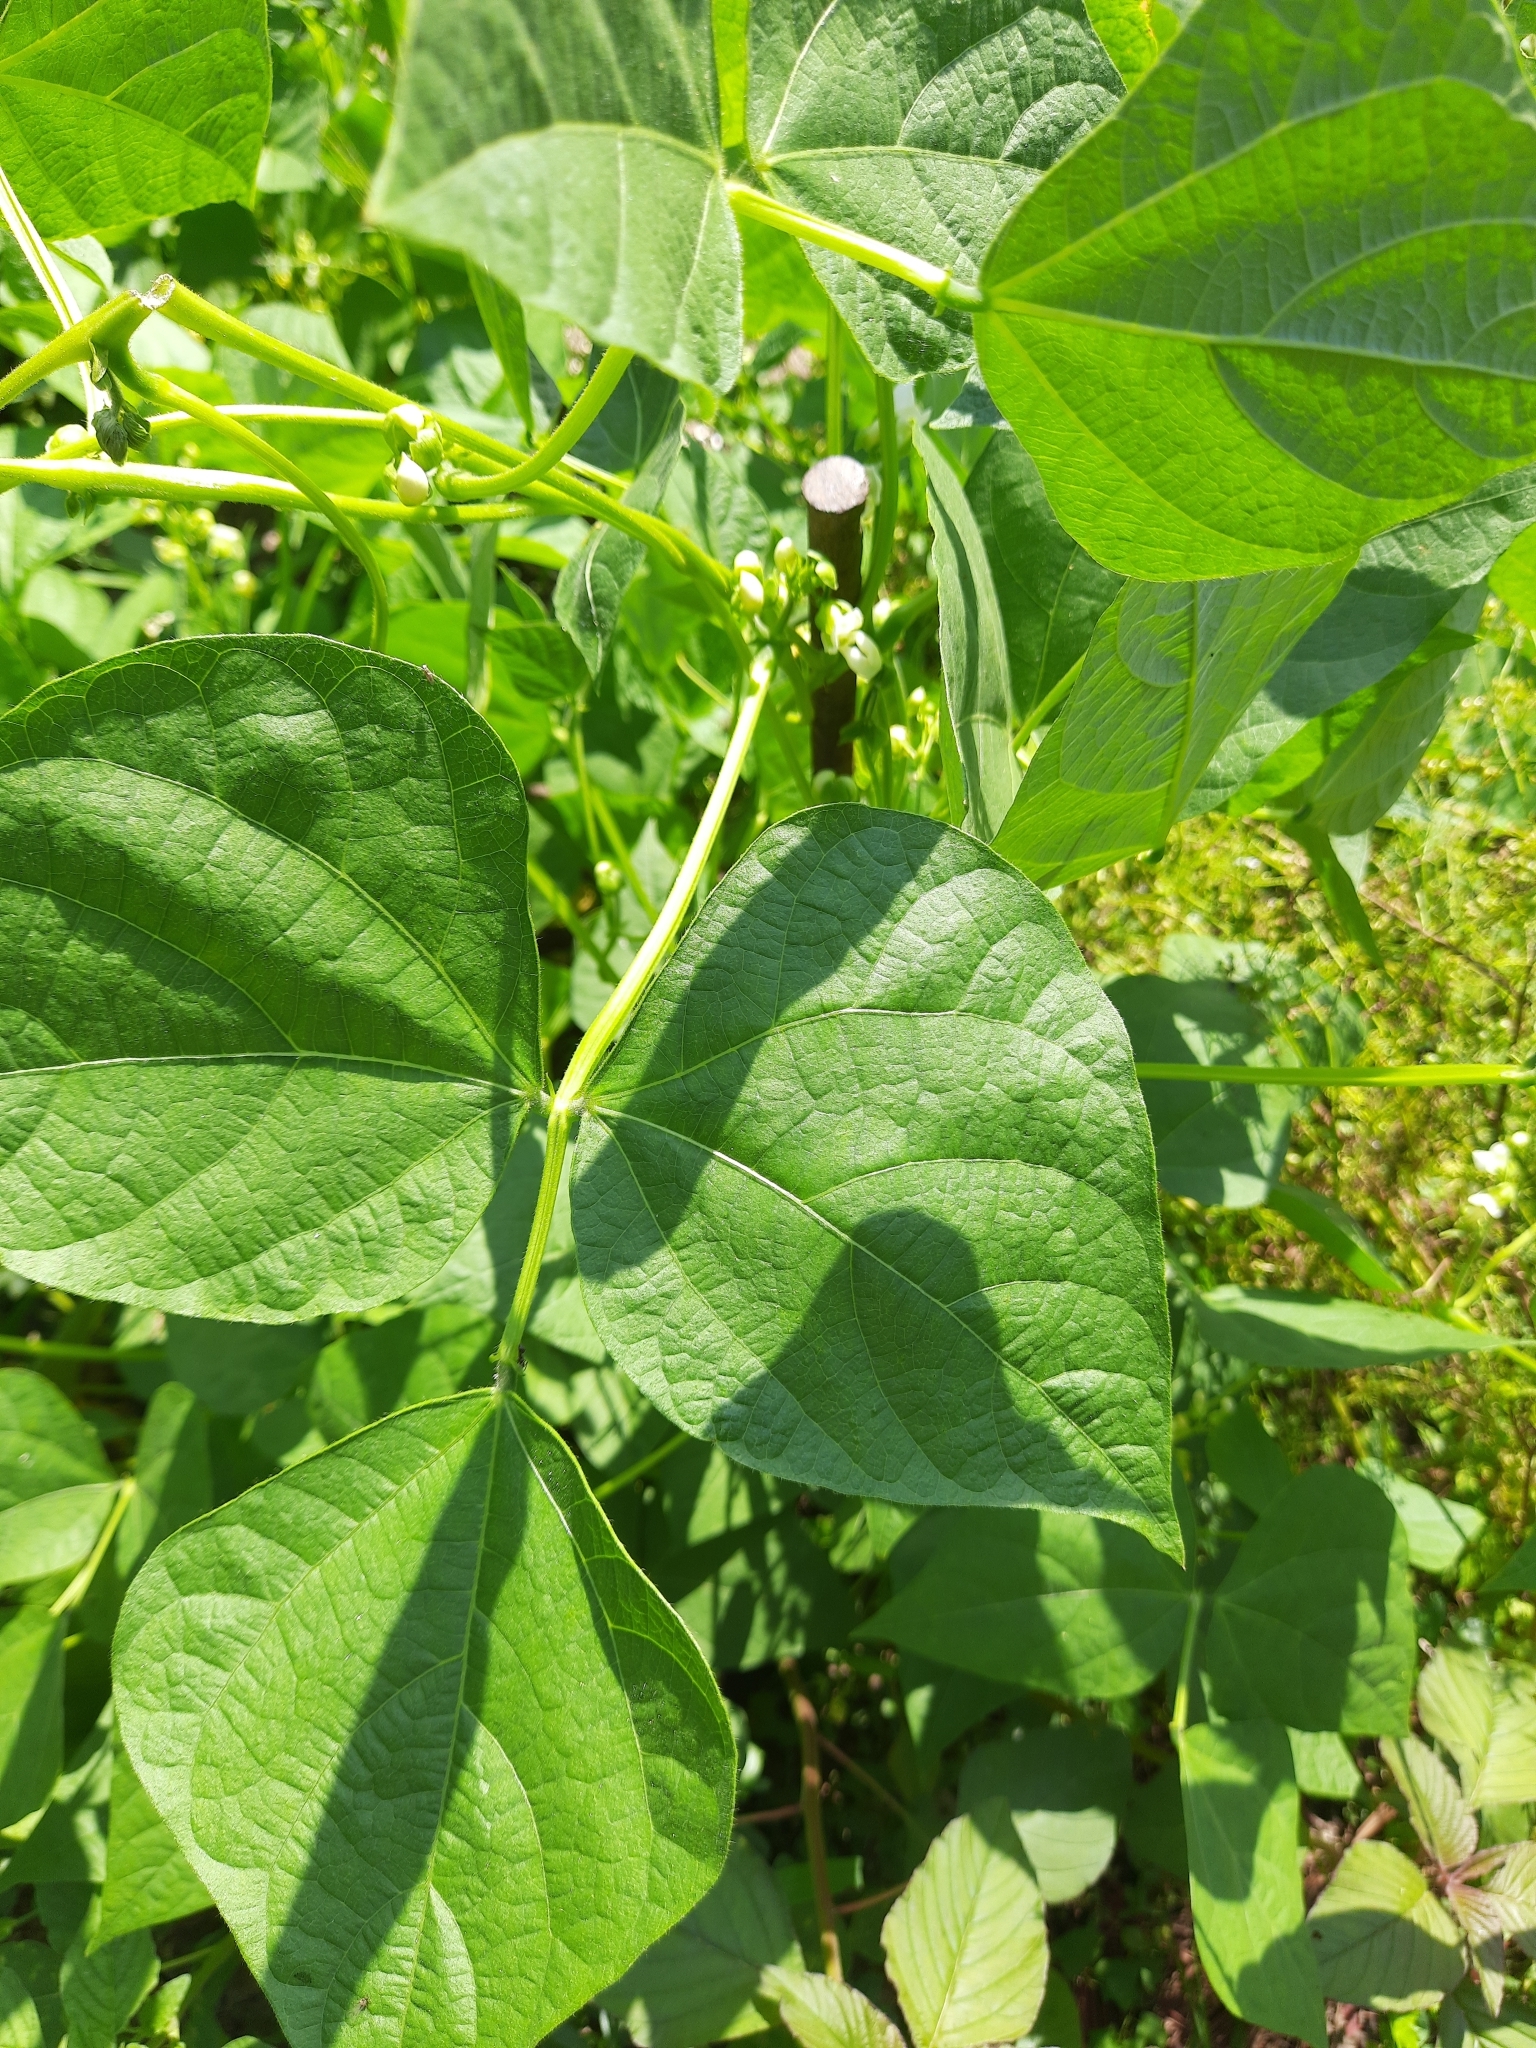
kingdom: Plantae
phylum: Tracheophyta
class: Magnoliopsida
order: Piperales
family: Aristolochiaceae
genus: Aristolochia
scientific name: Aristolochia clematitis
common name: Birthwort
